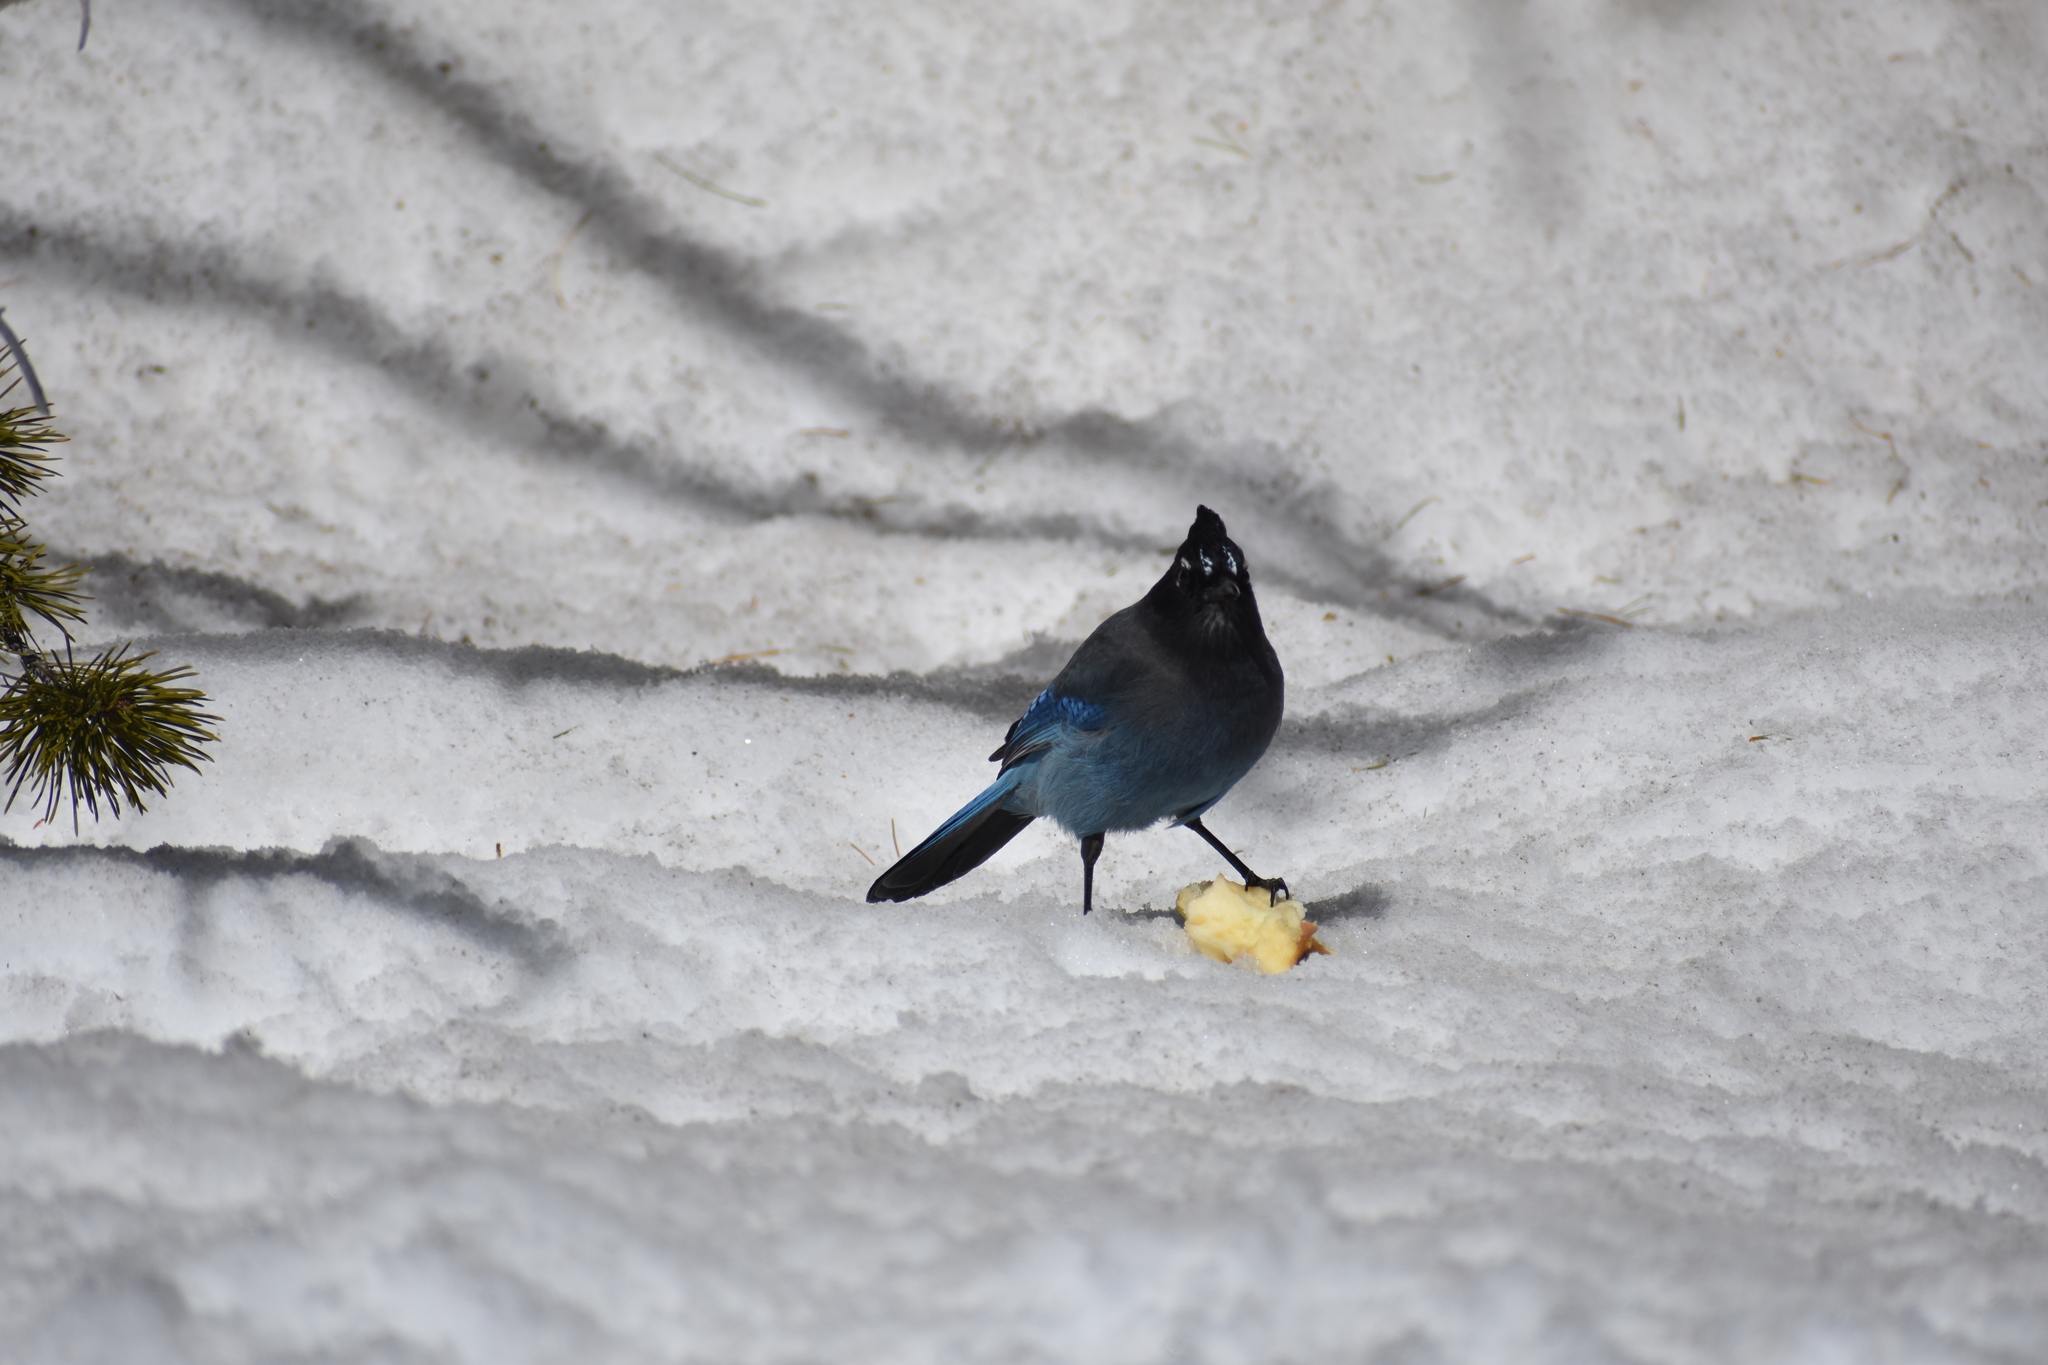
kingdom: Animalia
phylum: Chordata
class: Aves
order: Passeriformes
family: Corvidae
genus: Cyanocitta
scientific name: Cyanocitta stelleri
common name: Steller's jay
